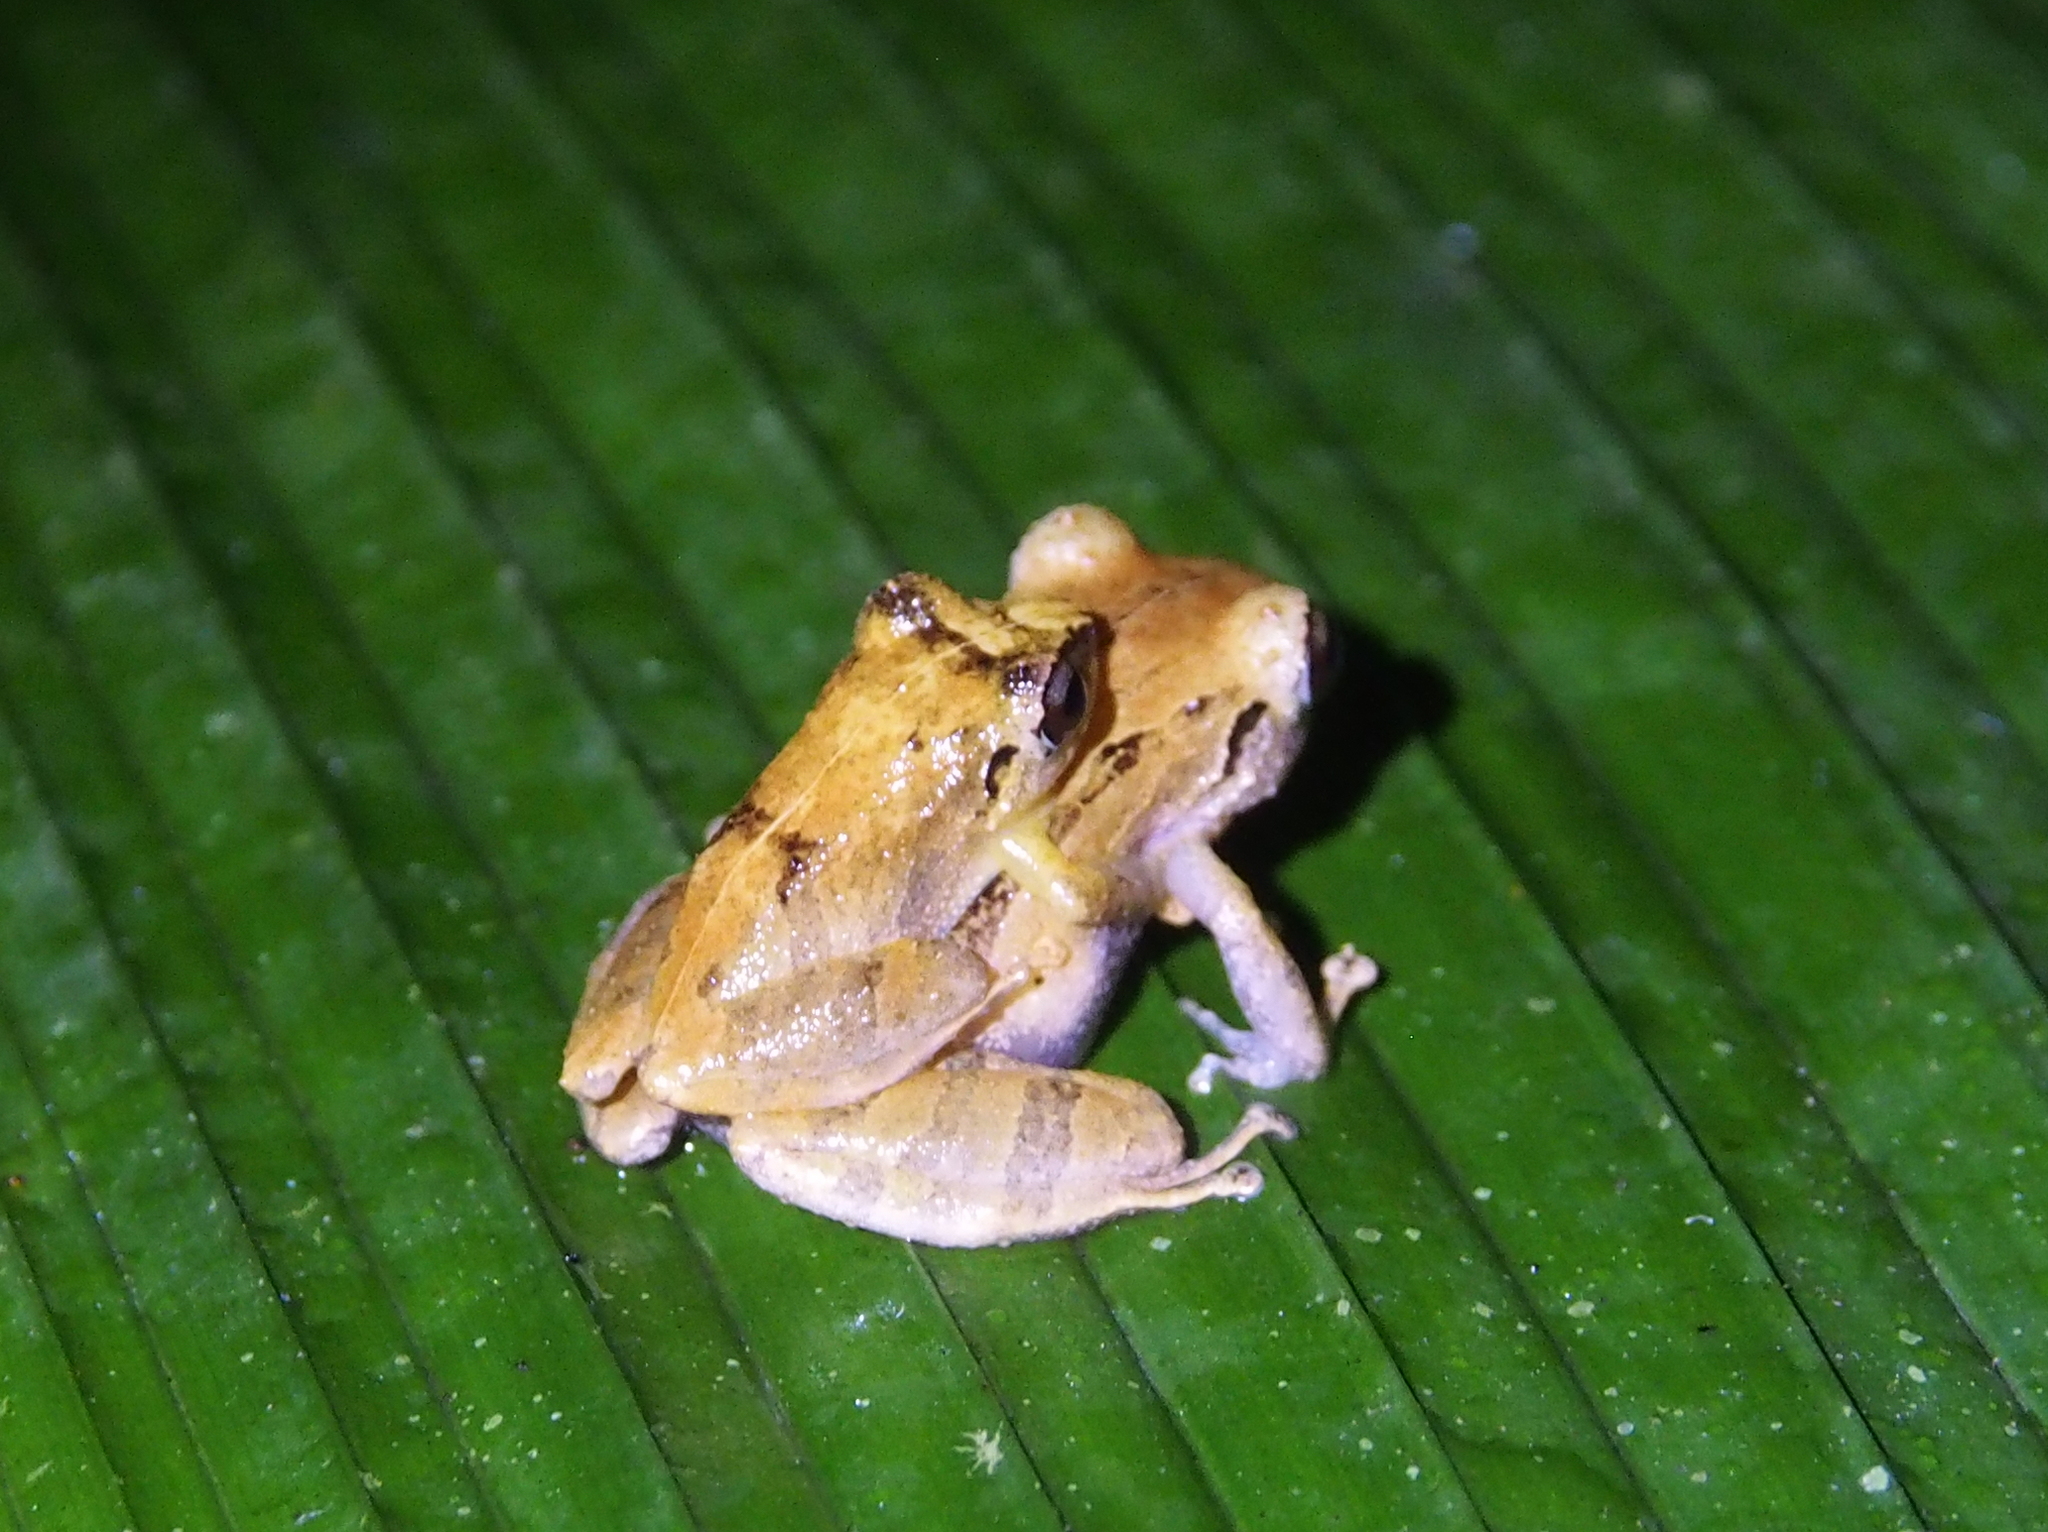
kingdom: Animalia
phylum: Chordata
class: Amphibia
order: Anura
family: Craugastoridae
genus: Pristimantis
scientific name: Pristimantis ridens
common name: Rio san juan robber frog
